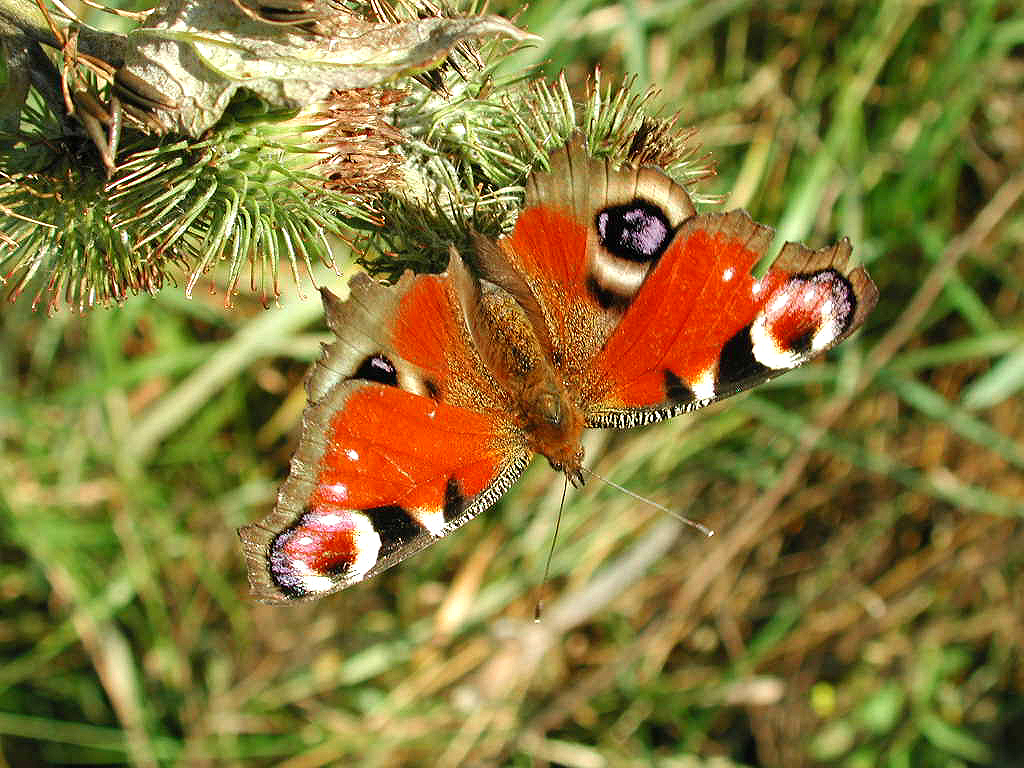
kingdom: Animalia
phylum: Arthropoda
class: Insecta
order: Lepidoptera
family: Nymphalidae
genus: Aglais
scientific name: Aglais io
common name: Peacock
